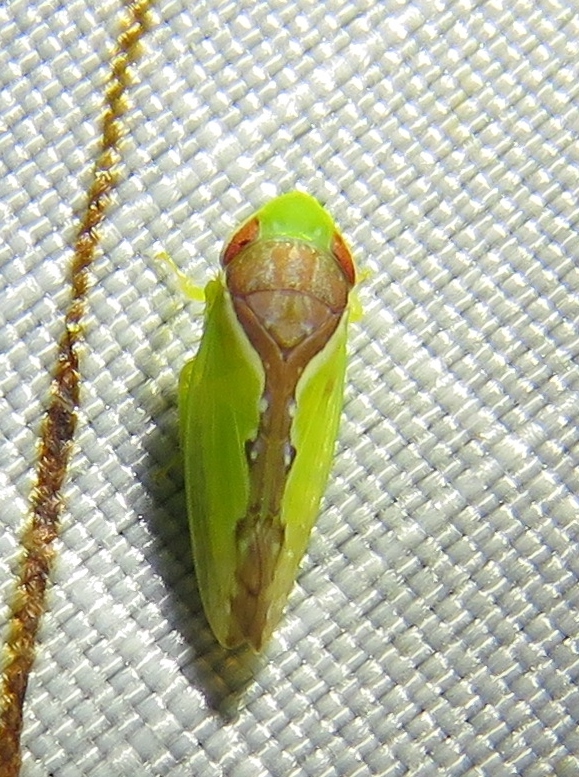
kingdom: Animalia
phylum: Arthropoda
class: Insecta
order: Hemiptera
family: Cicadellidae
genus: Omansobara ing
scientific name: Omansobara ing Omansobara palliolata
